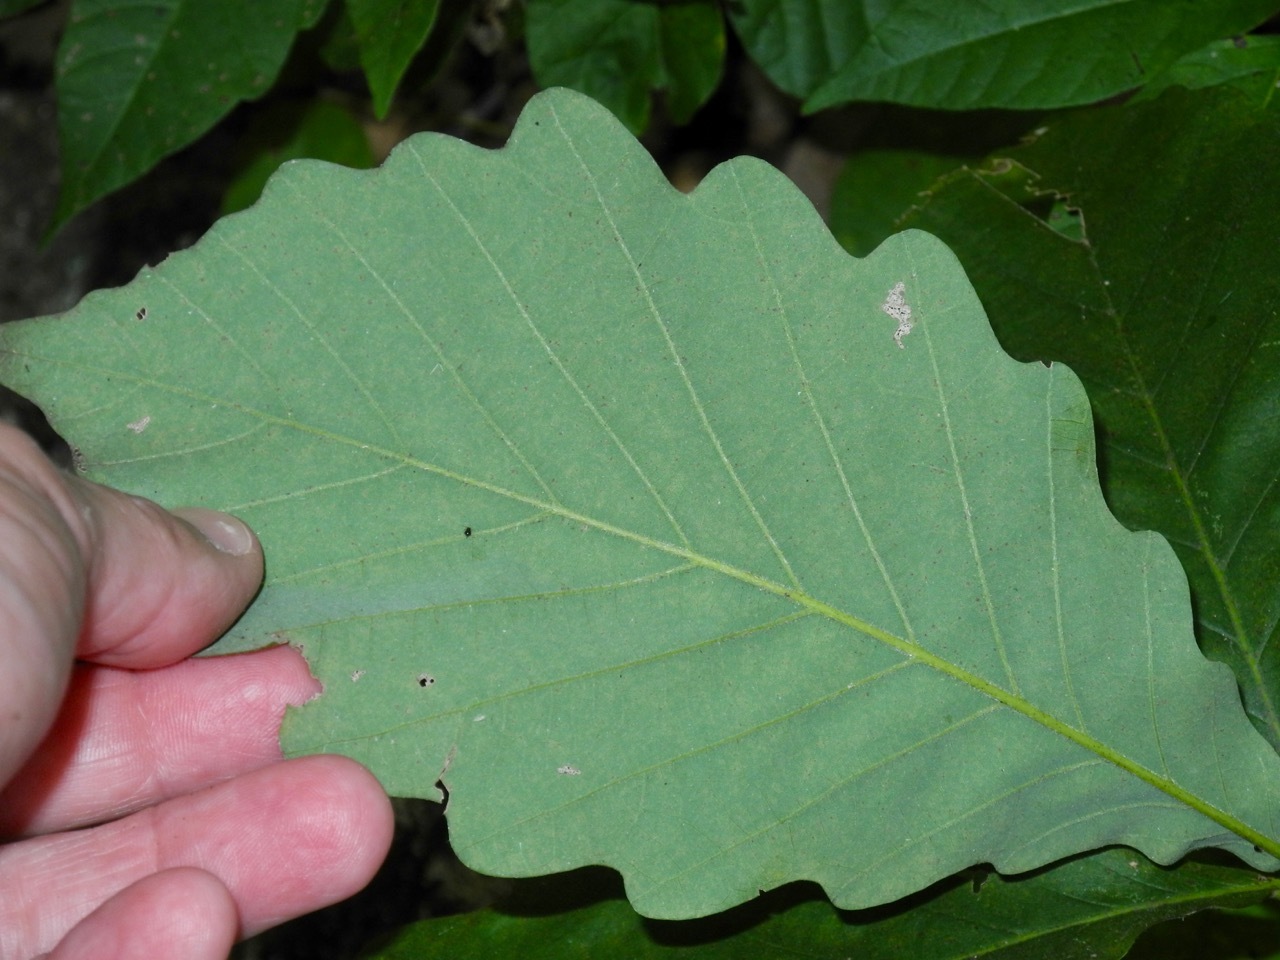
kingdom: Plantae
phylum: Tracheophyta
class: Magnoliopsida
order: Fagales
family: Fagaceae
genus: Quercus
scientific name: Quercus montana
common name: Chestnut oak
